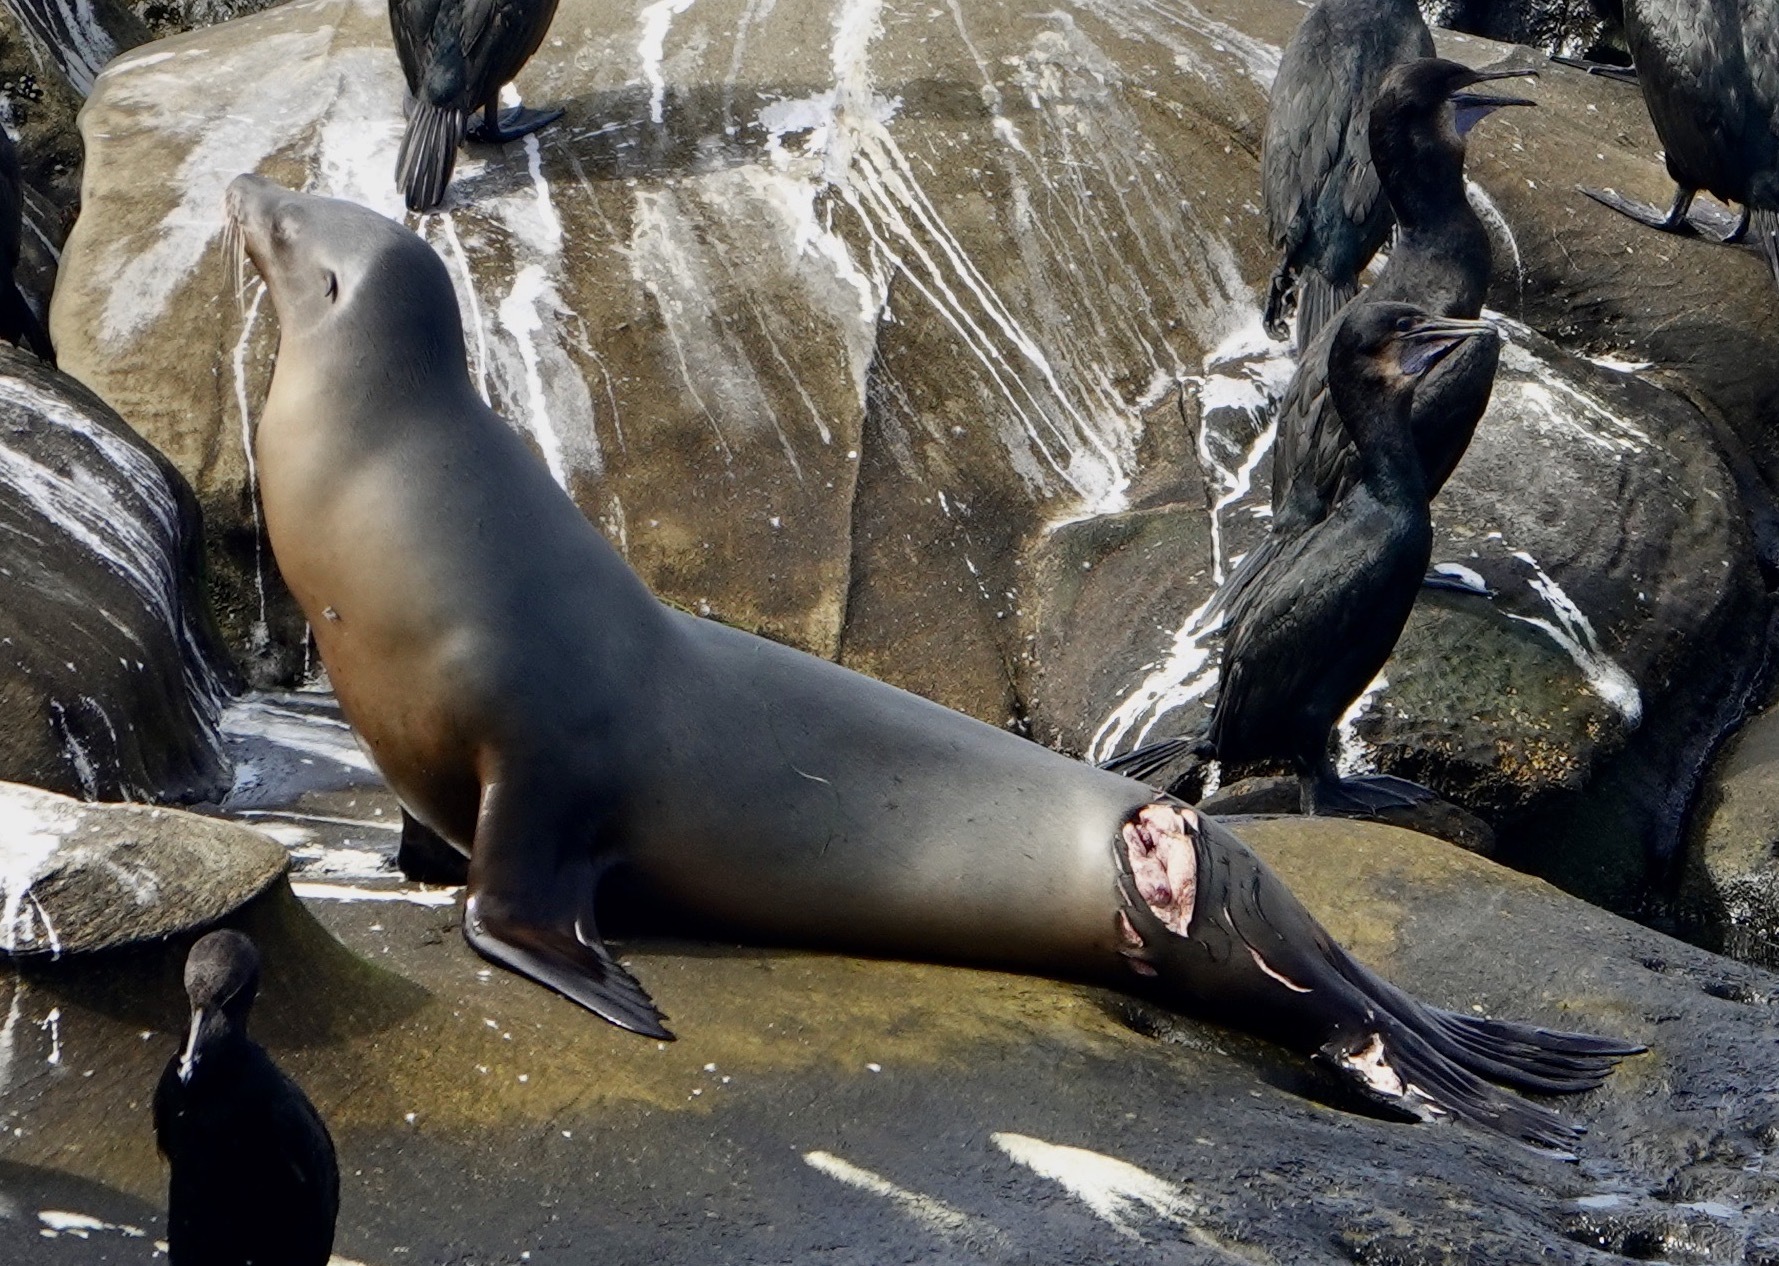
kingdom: Animalia
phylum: Chordata
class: Mammalia
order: Carnivora
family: Otariidae
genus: Zalophus
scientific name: Zalophus californianus
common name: California sea lion
